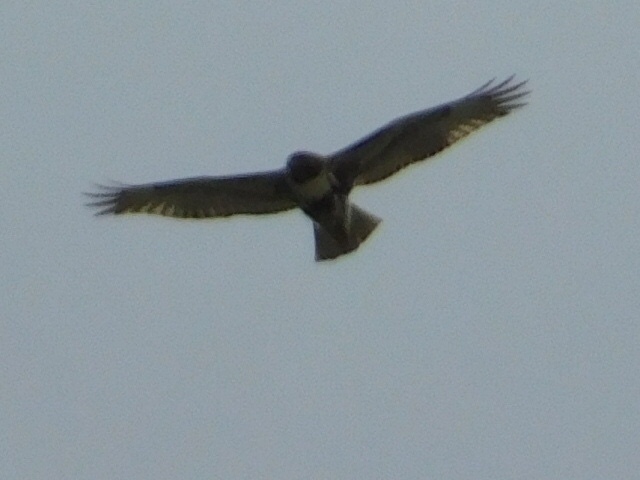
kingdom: Animalia
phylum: Chordata
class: Aves
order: Accipitriformes
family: Accipitridae
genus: Buteo
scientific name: Buteo jamaicensis
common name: Red-tailed hawk
